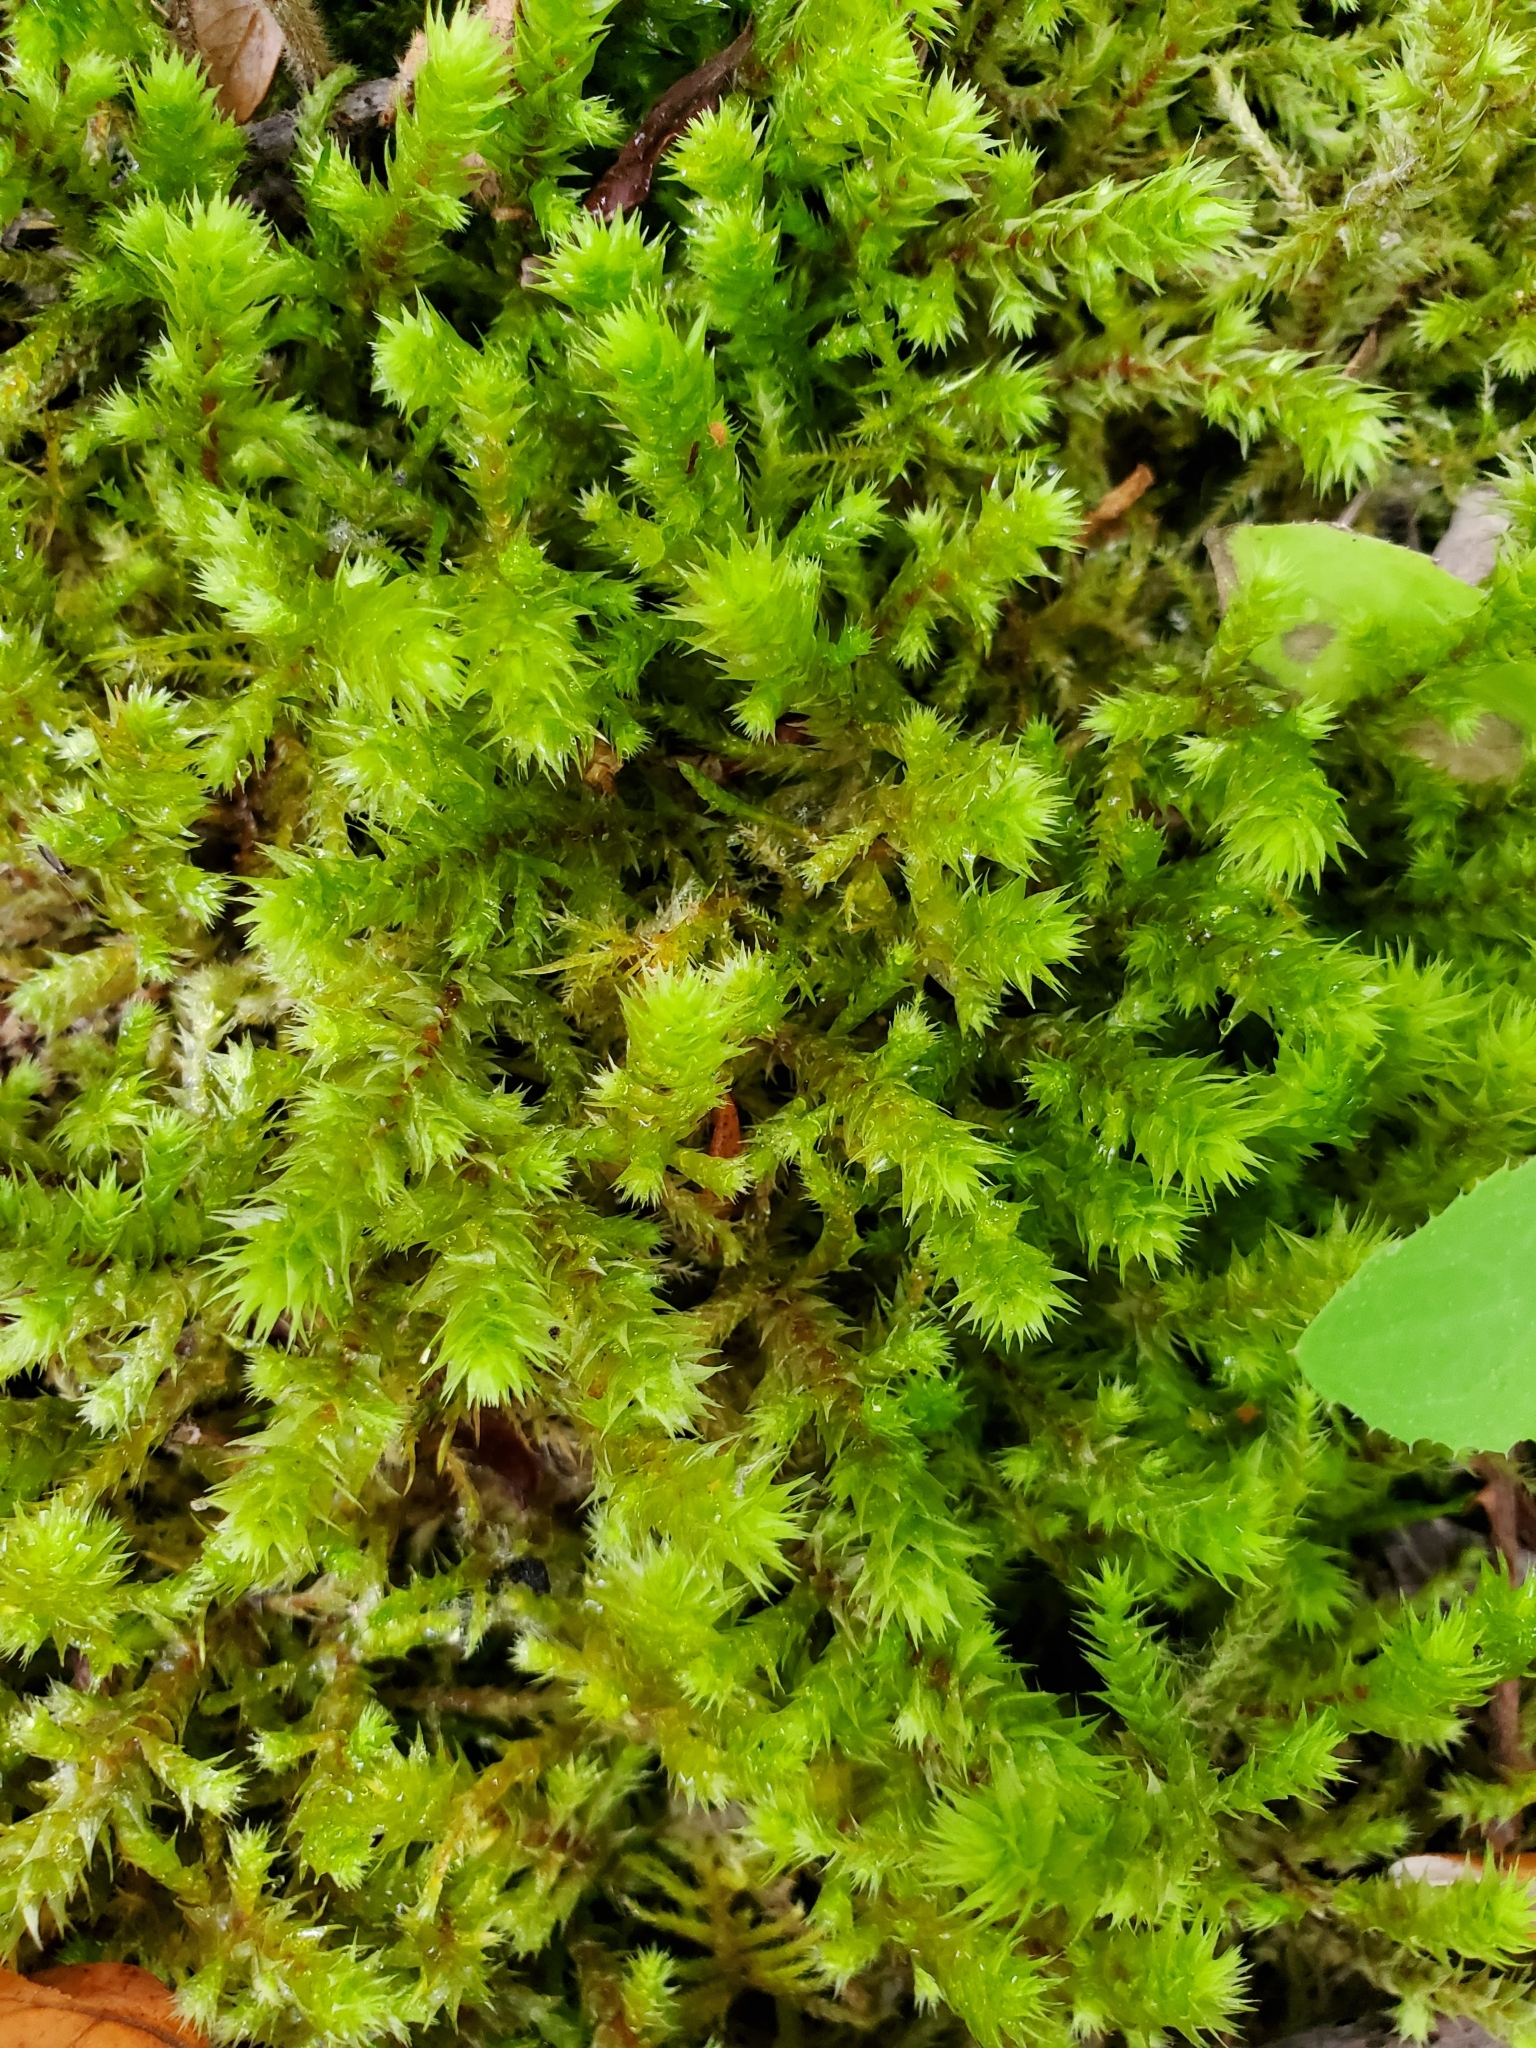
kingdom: Plantae
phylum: Bryophyta
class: Bryopsida
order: Hypnales
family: Hylocomiaceae
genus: Hylocomiadelphus
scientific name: Hylocomiadelphus triquetrus
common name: Rough goose neck moss
